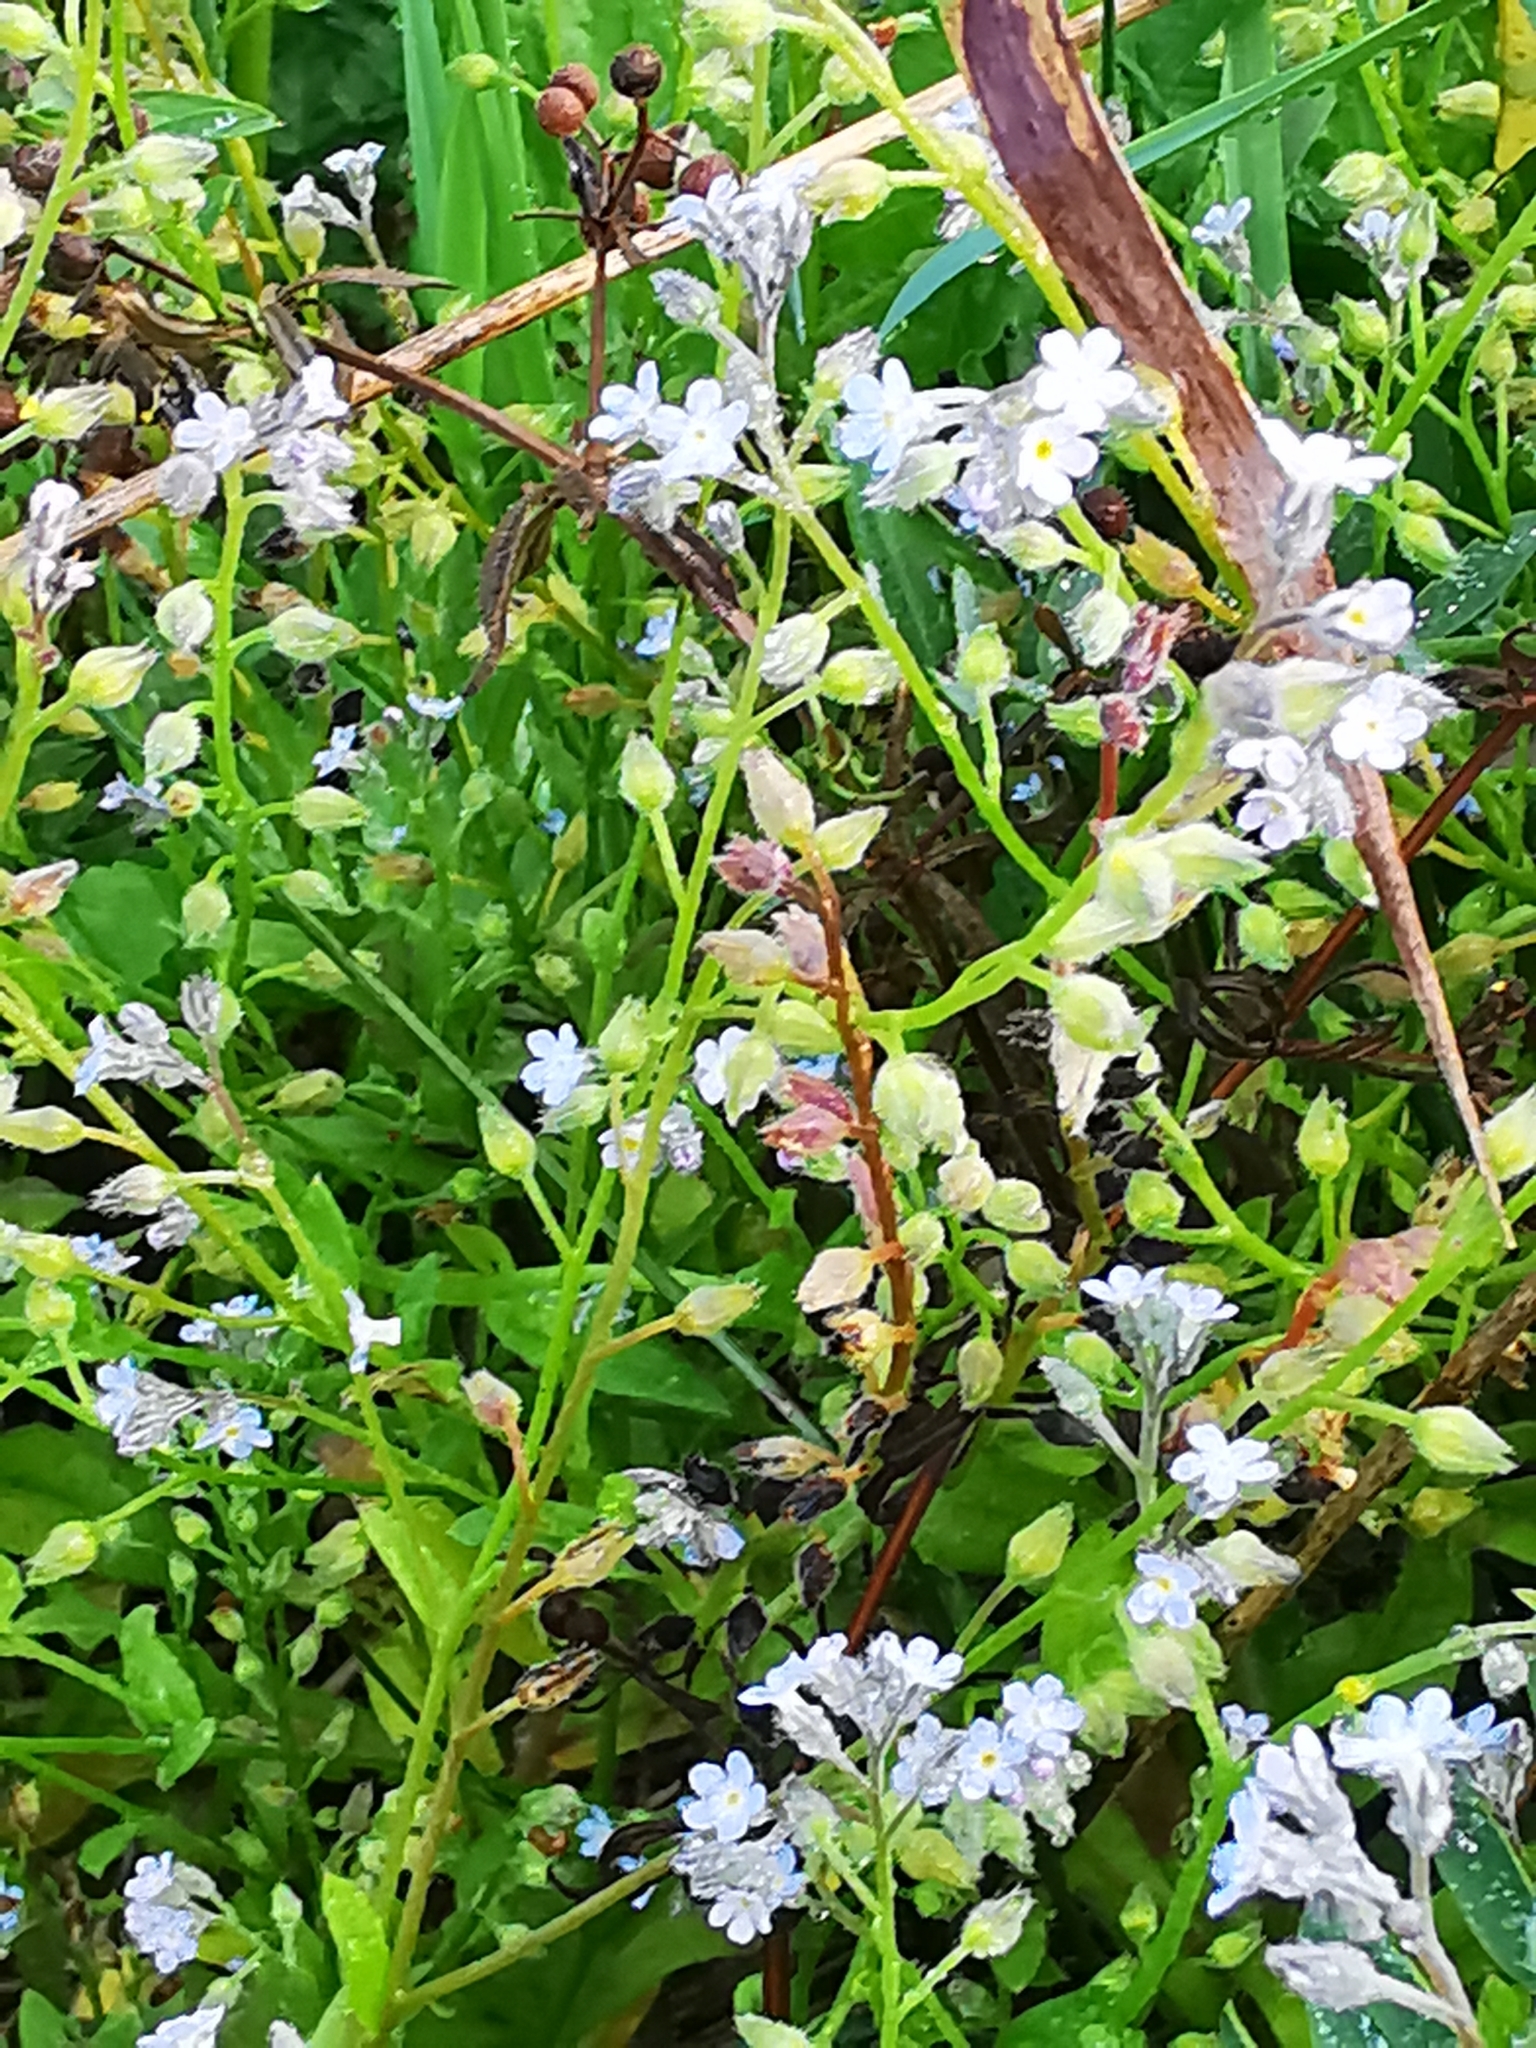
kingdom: Plantae
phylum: Tracheophyta
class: Magnoliopsida
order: Boraginales
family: Boraginaceae
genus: Myosotis
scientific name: Myosotis arvensis
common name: Field forget-me-not
